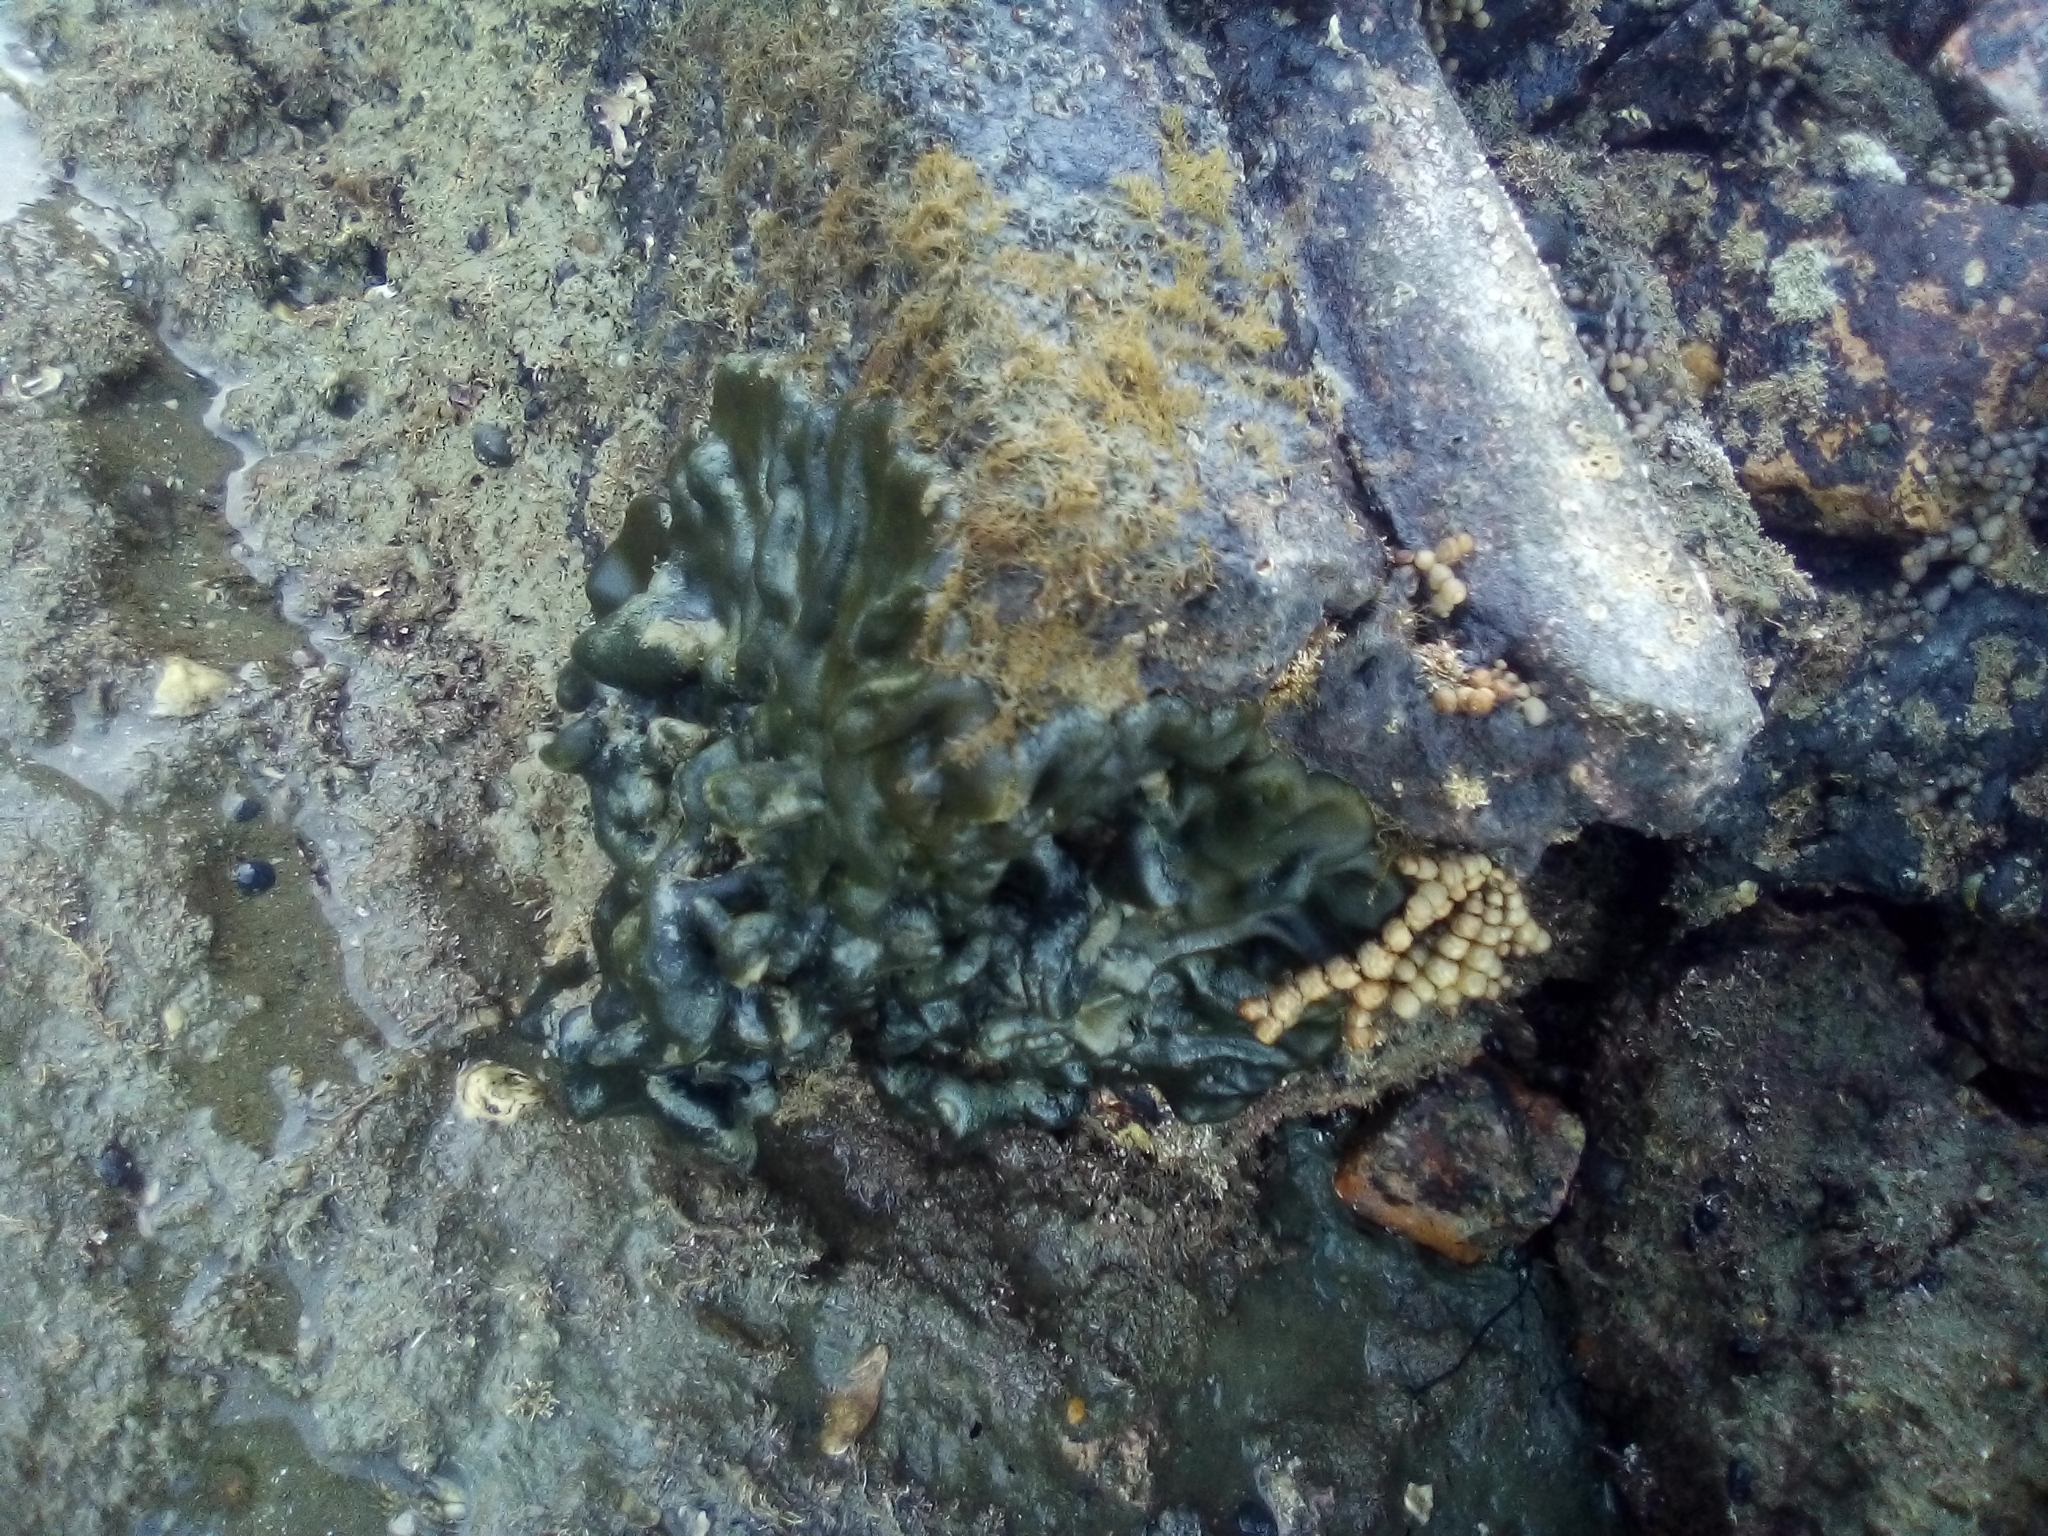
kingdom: Plantae
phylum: Chlorophyta
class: Ulvophyceae
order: Bryopsidales
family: Codiaceae
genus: Codium
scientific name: Codium convolutum
